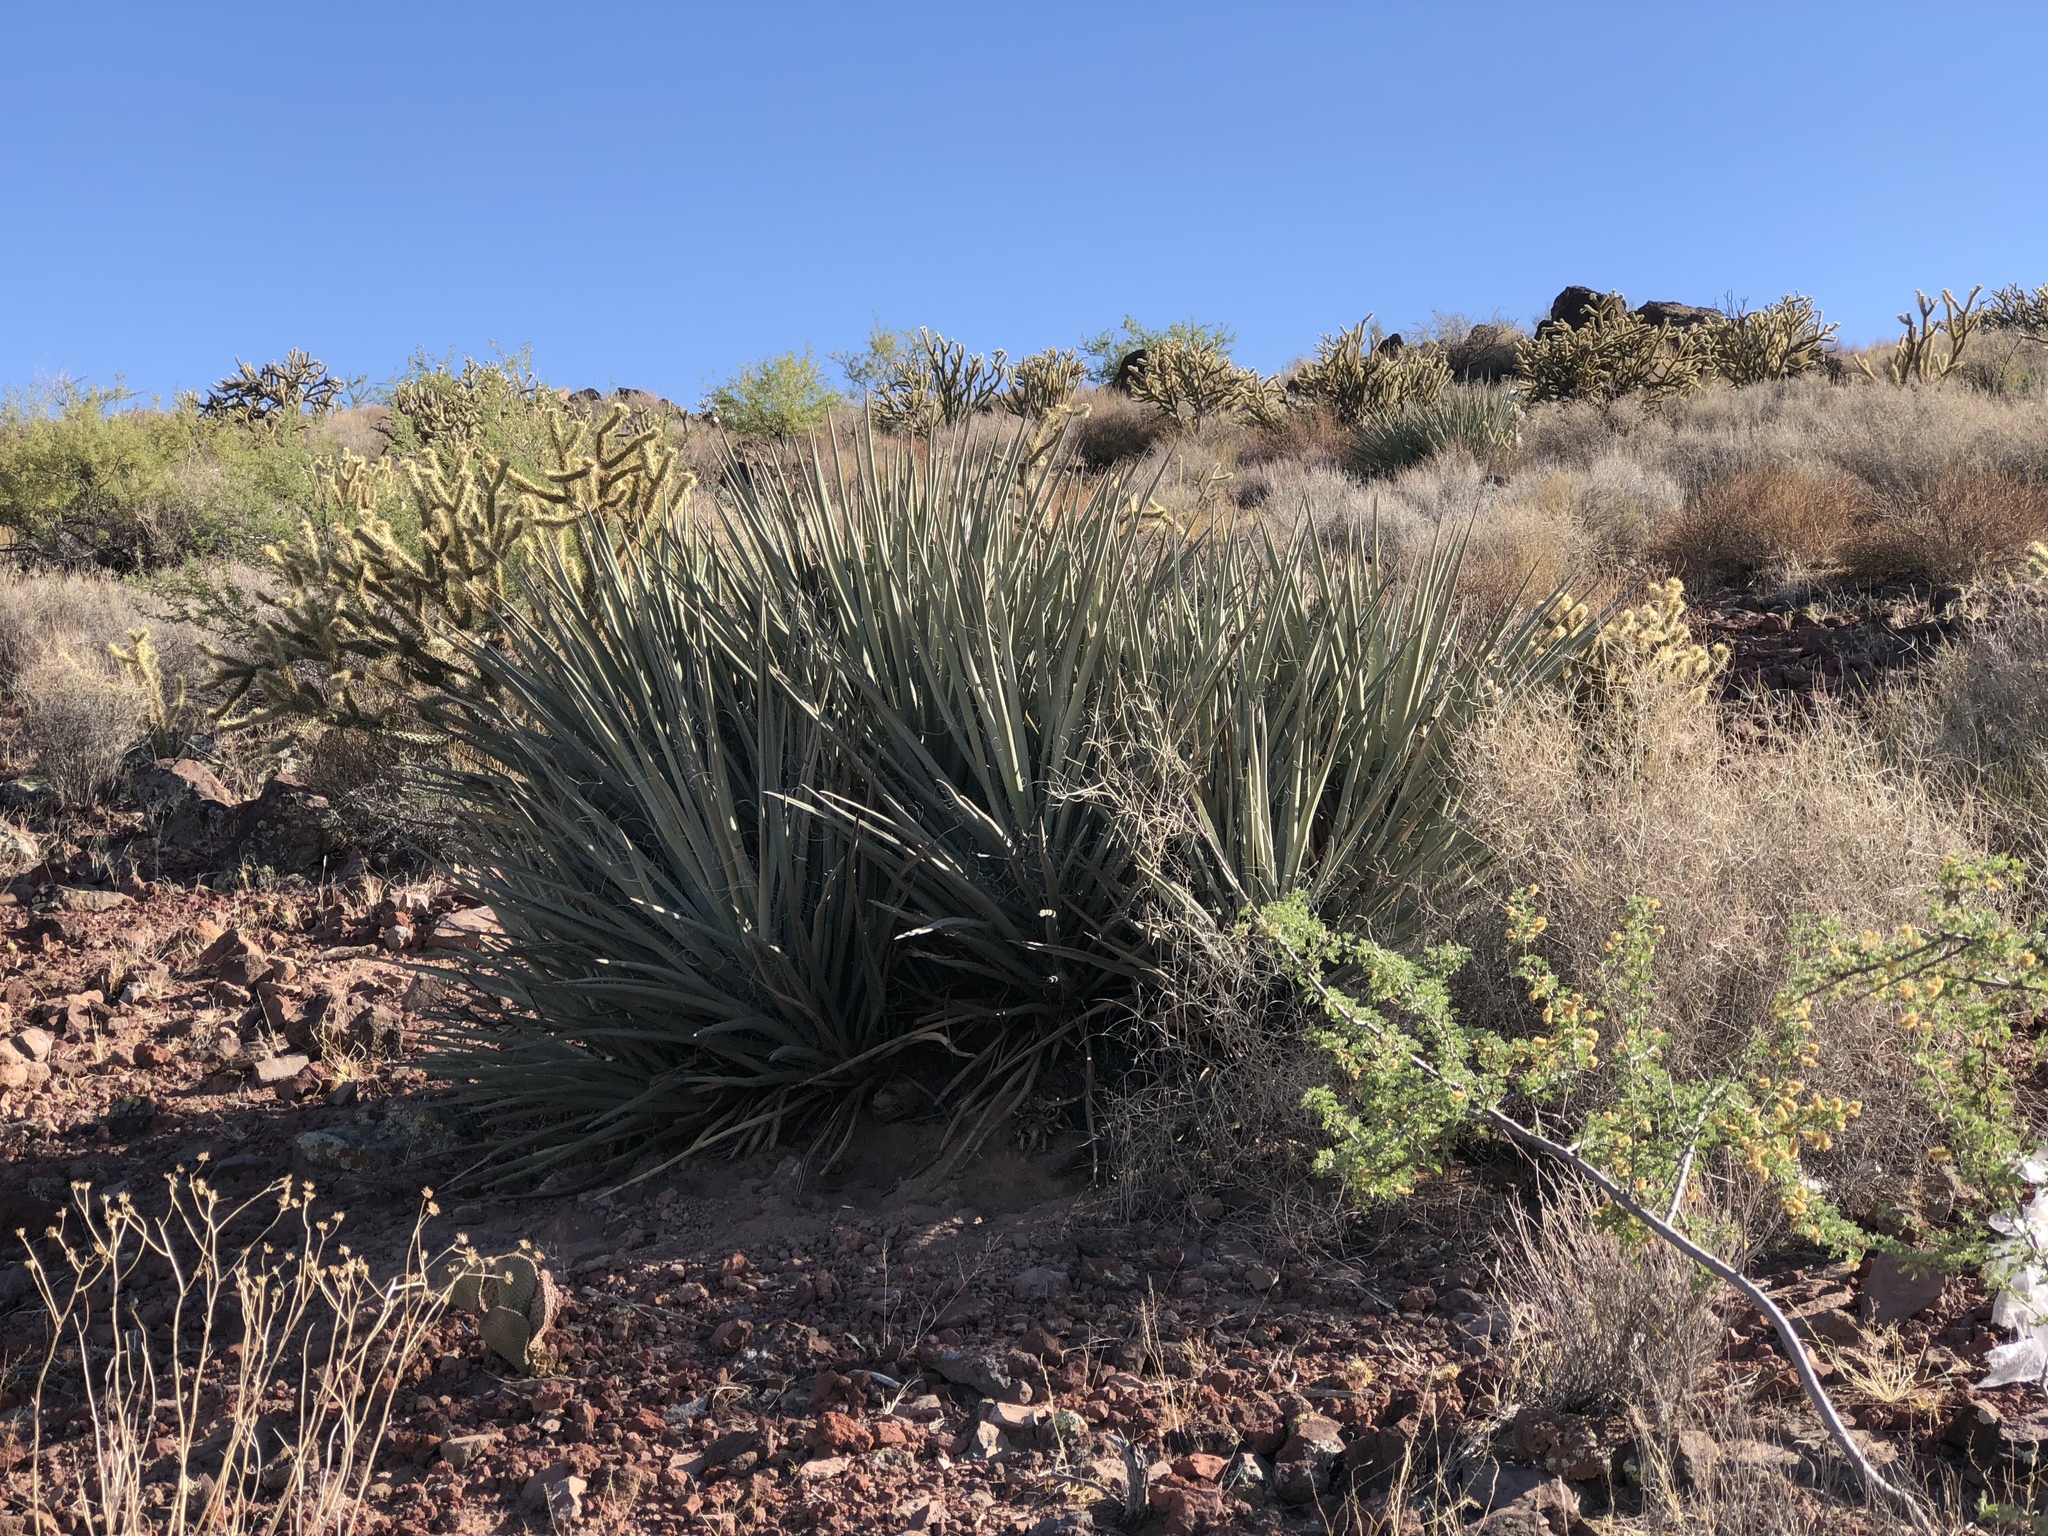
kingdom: Plantae
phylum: Tracheophyta
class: Liliopsida
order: Asparagales
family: Asparagaceae
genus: Yucca
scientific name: Yucca baccata
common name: Banana yucca
